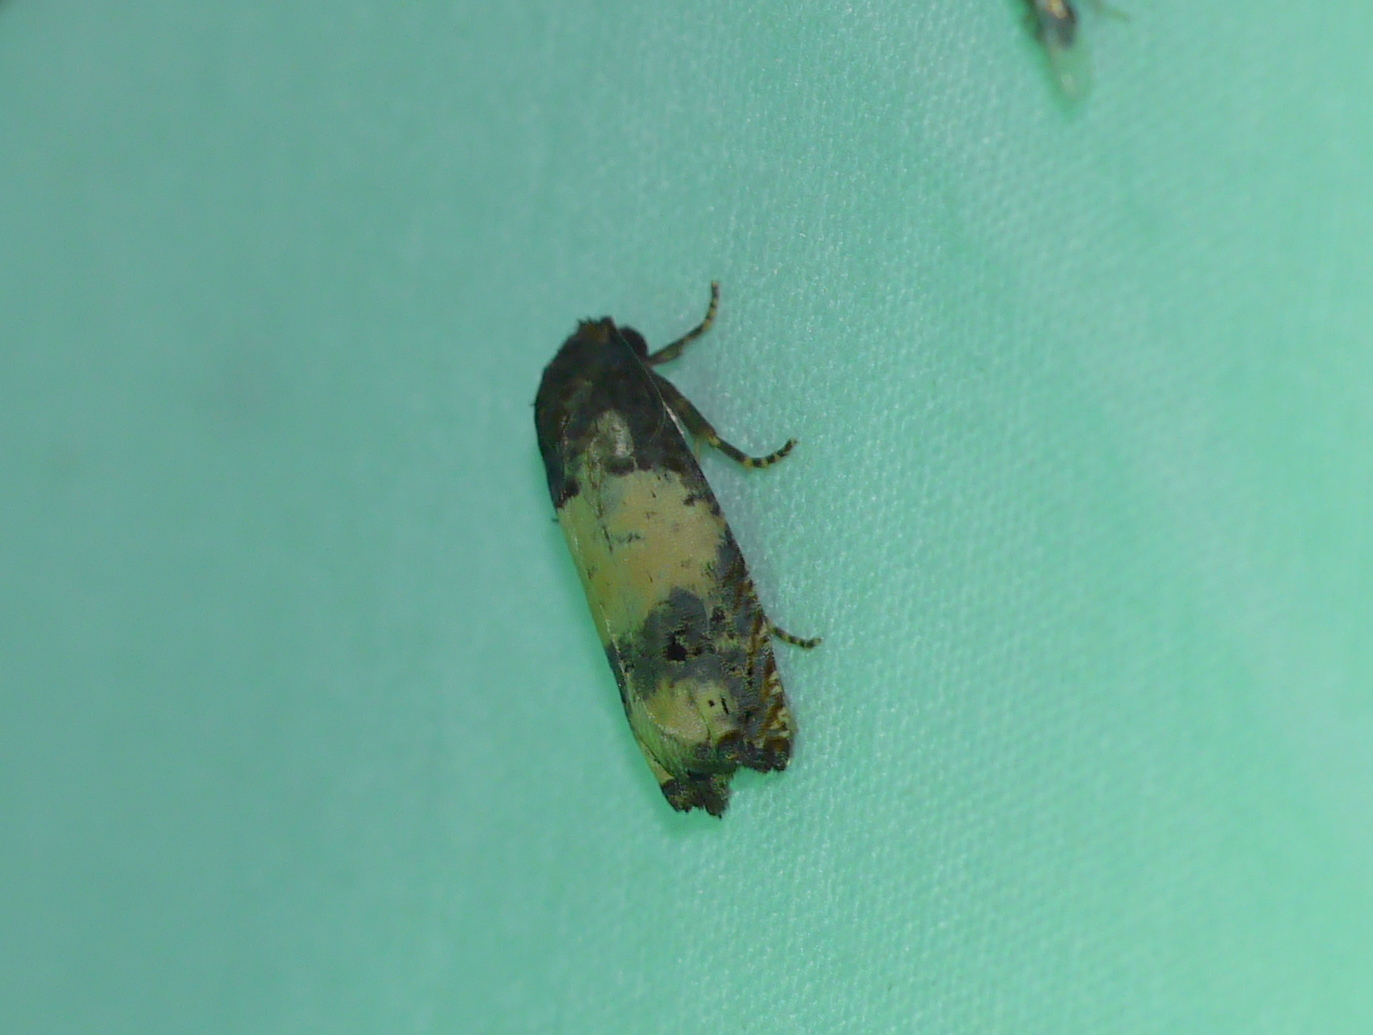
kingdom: Animalia
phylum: Arthropoda
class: Insecta
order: Lepidoptera
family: Tortricidae
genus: Epiblema
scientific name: Epiblema scudderiana
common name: Goldenrod gall moth
